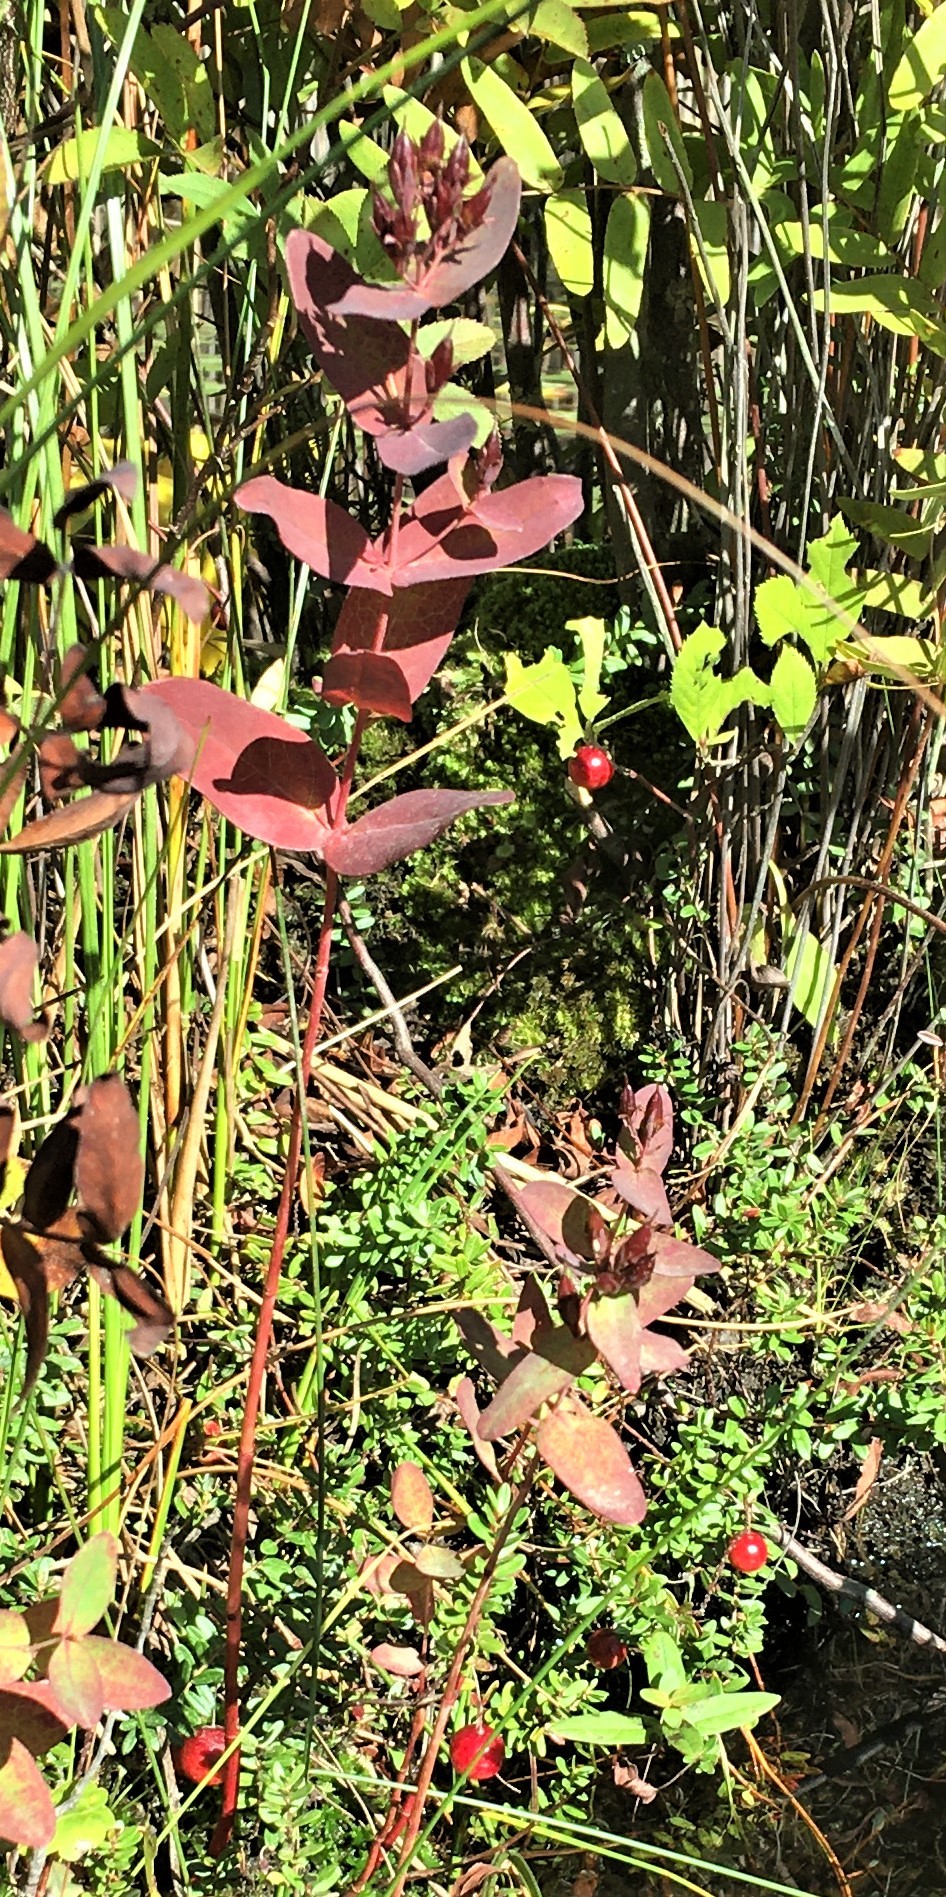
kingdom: Plantae
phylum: Tracheophyta
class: Magnoliopsida
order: Malpighiales
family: Hypericaceae
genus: Triadenum
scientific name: Triadenum virginicum
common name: Marsh st. john's-wort
